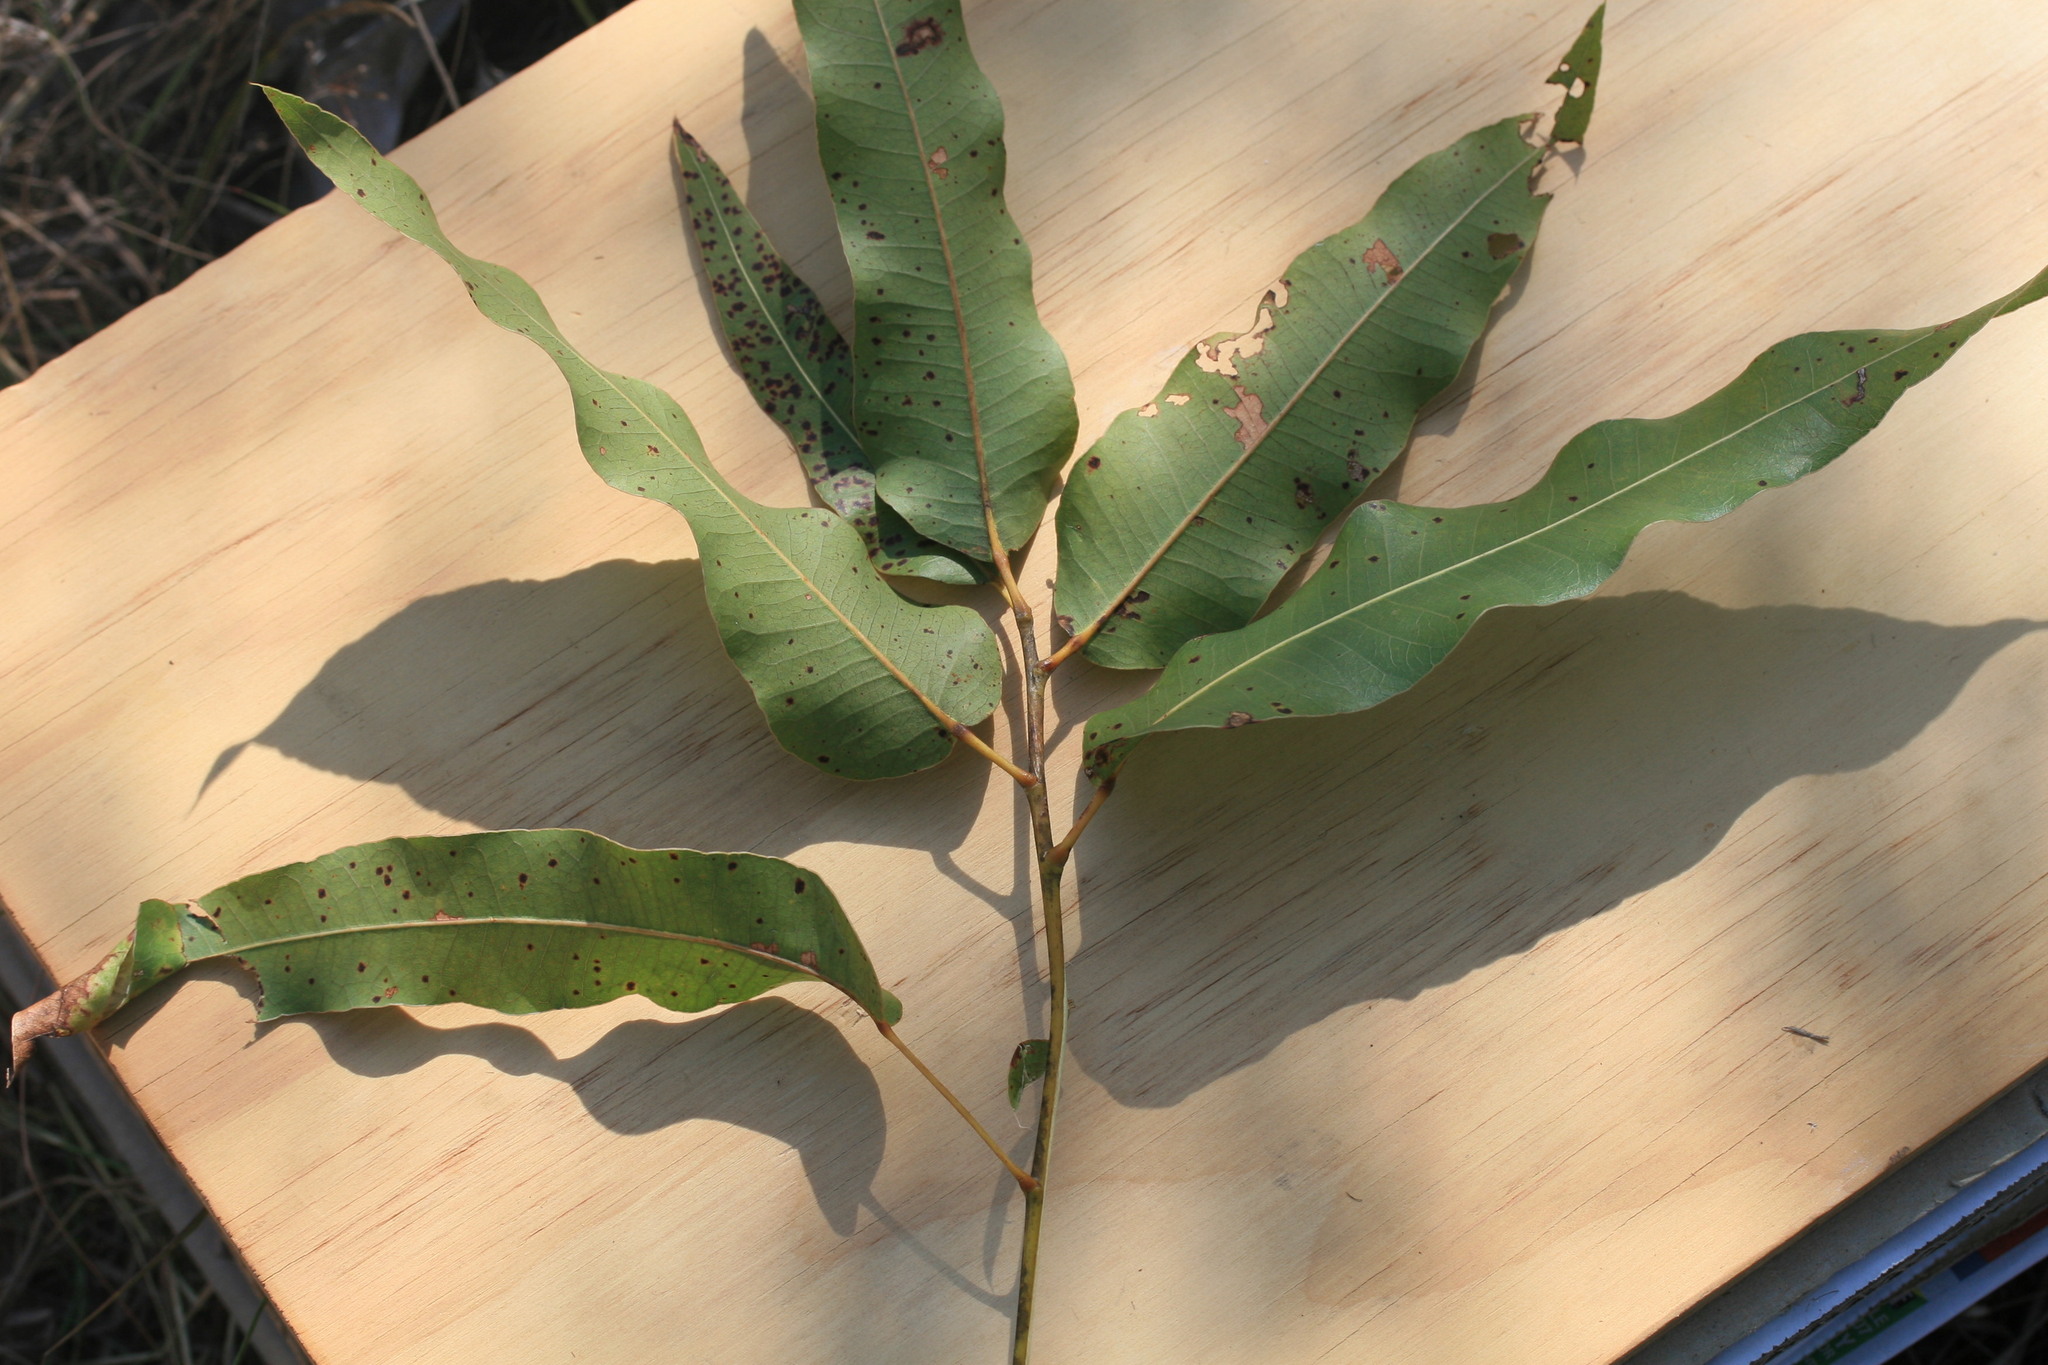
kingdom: Plantae
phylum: Tracheophyta
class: Magnoliopsida
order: Malvales
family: Malvaceae
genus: Brachychiton
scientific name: Brachychiton diversifolius
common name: Northern kurrajong
